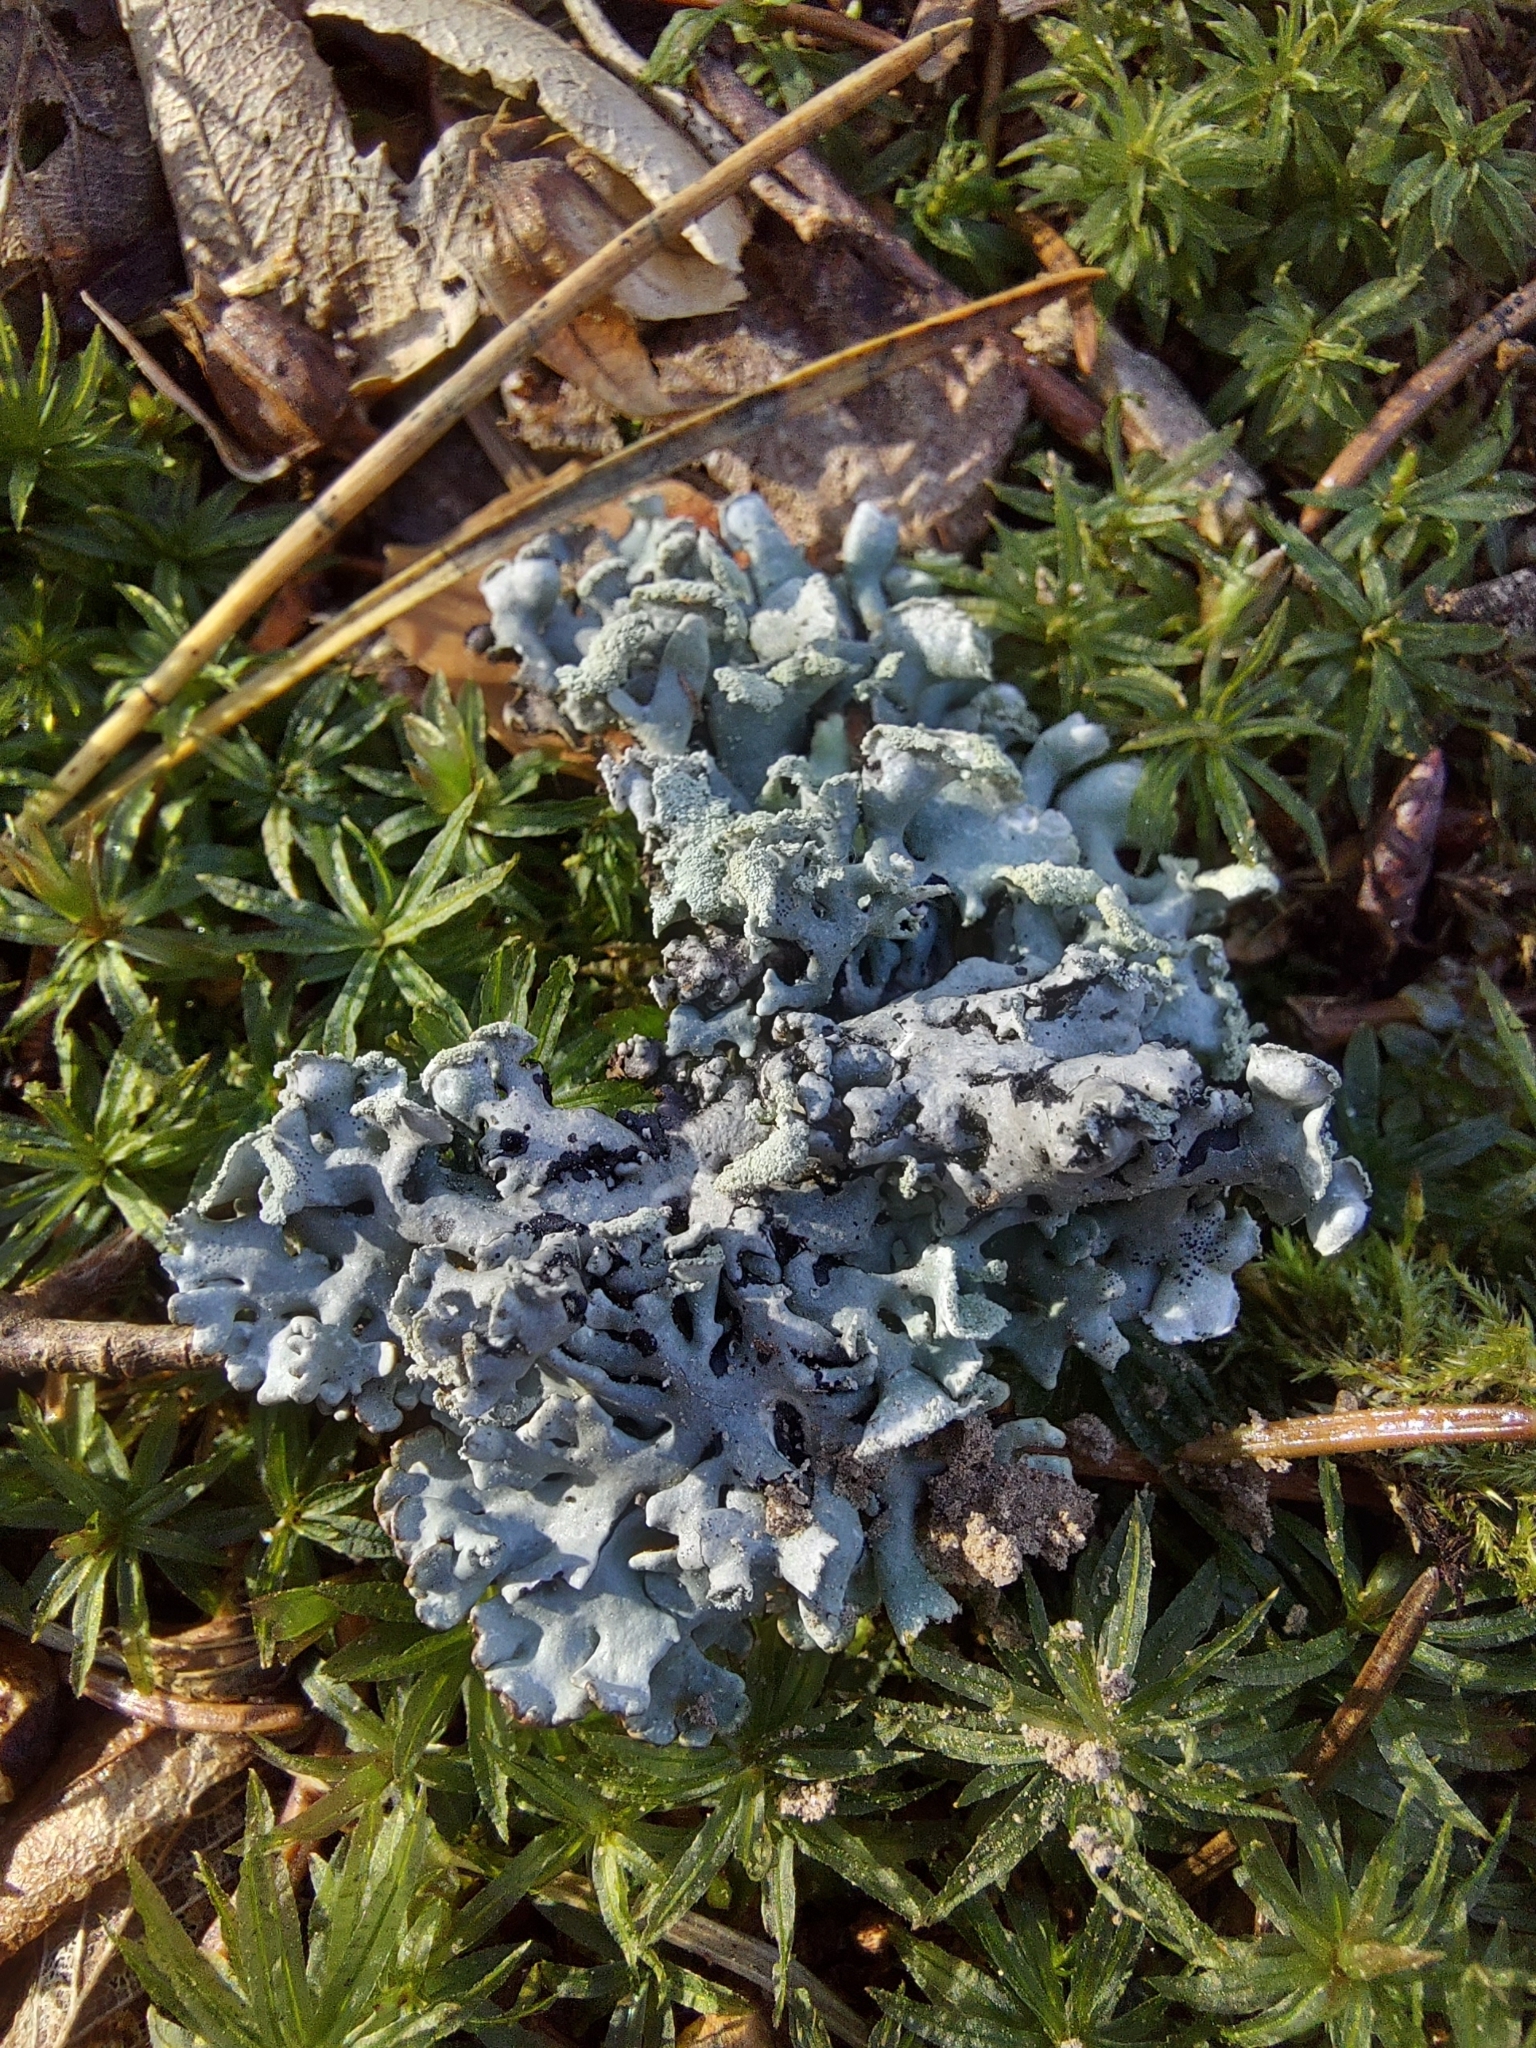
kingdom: Fungi
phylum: Ascomycota
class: Lecanoromycetes
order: Lecanorales
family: Parmeliaceae
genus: Hypogymnia
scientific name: Hypogymnia physodes
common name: Dark crottle
